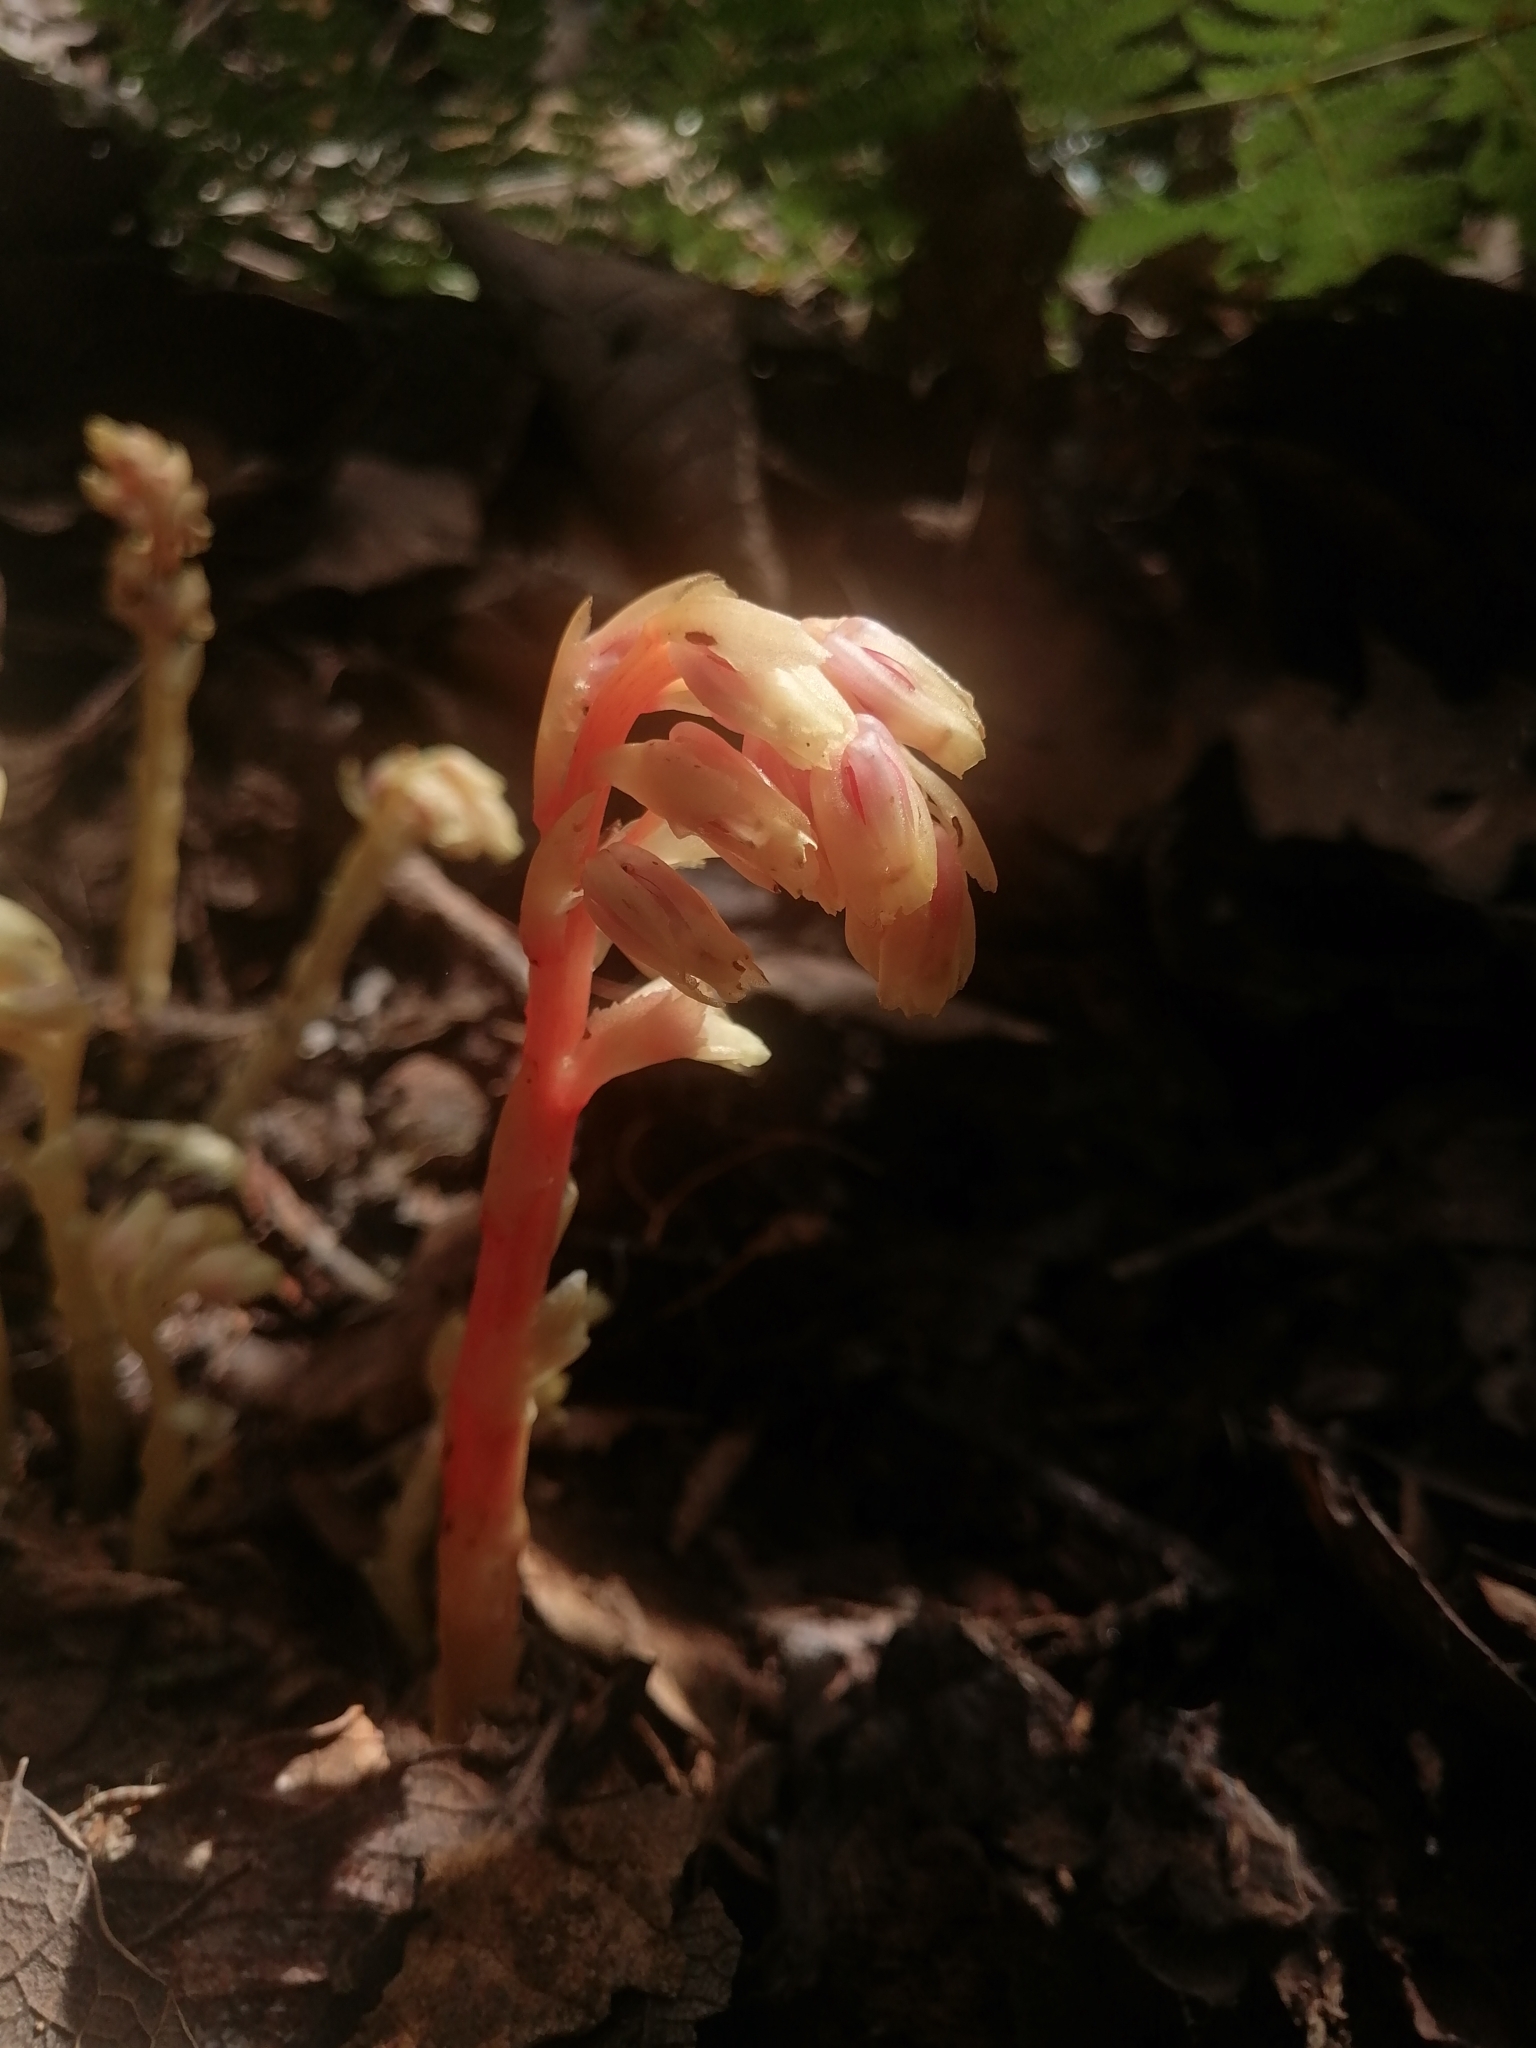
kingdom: Plantae
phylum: Tracheophyta
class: Magnoliopsida
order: Ericales
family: Ericaceae
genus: Hypopitys
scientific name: Hypopitys monotropa
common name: Yellow bird's-nest
